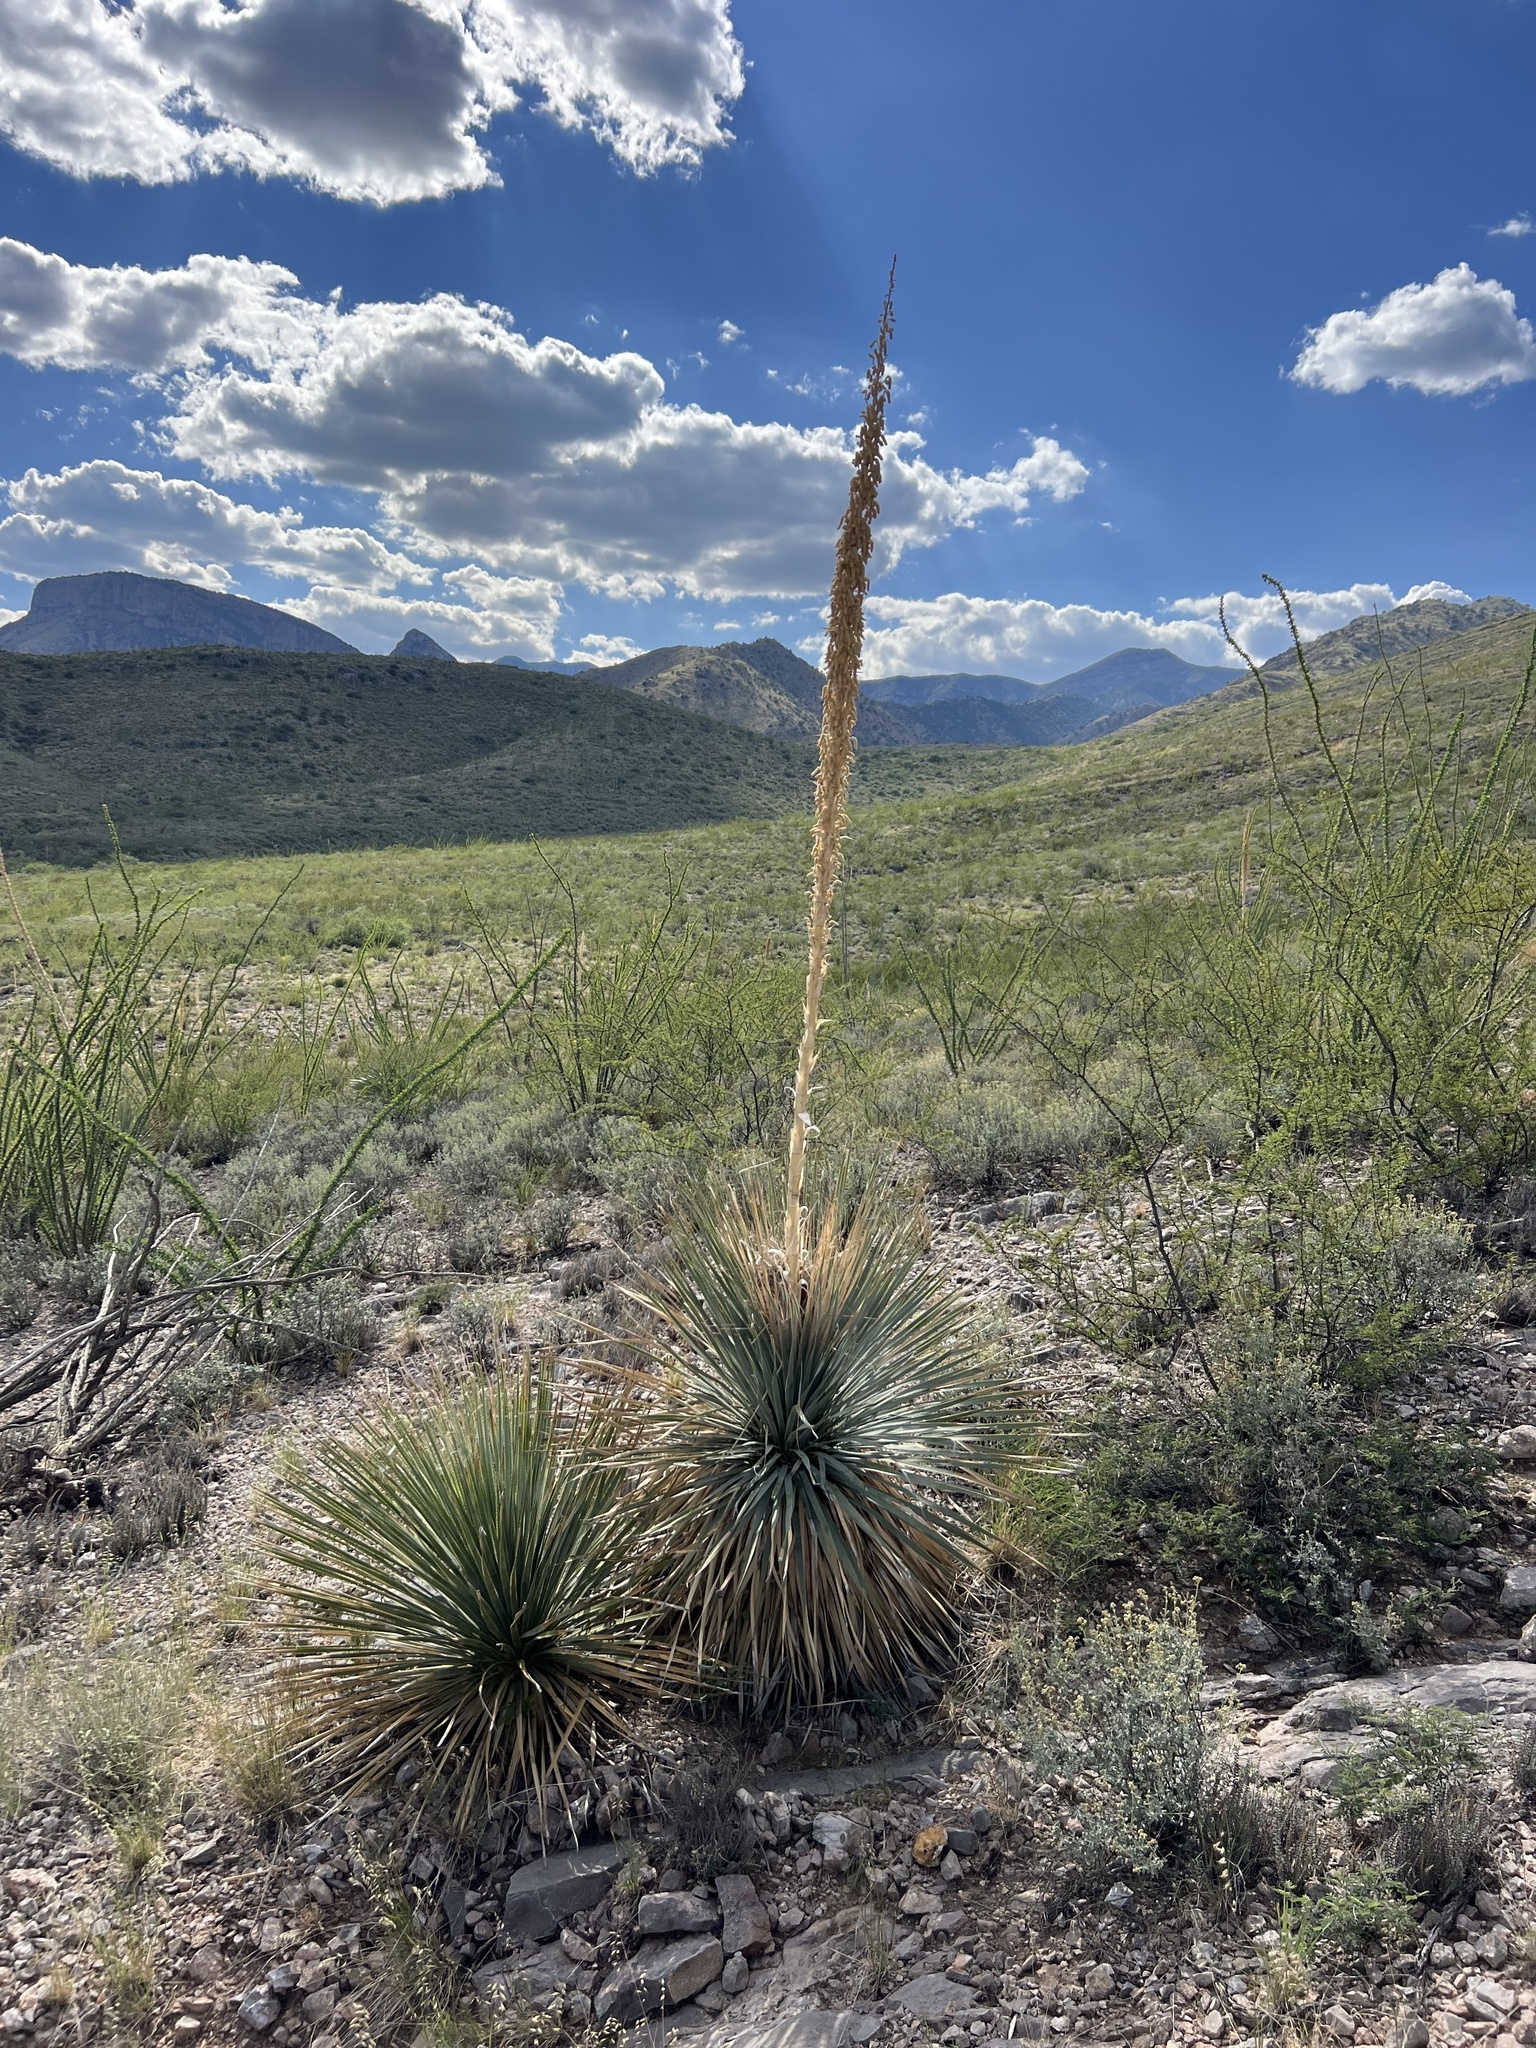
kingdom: Plantae
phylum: Tracheophyta
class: Liliopsida
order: Asparagales
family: Asparagaceae
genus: Dasylirion
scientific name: Dasylirion wheeleri
